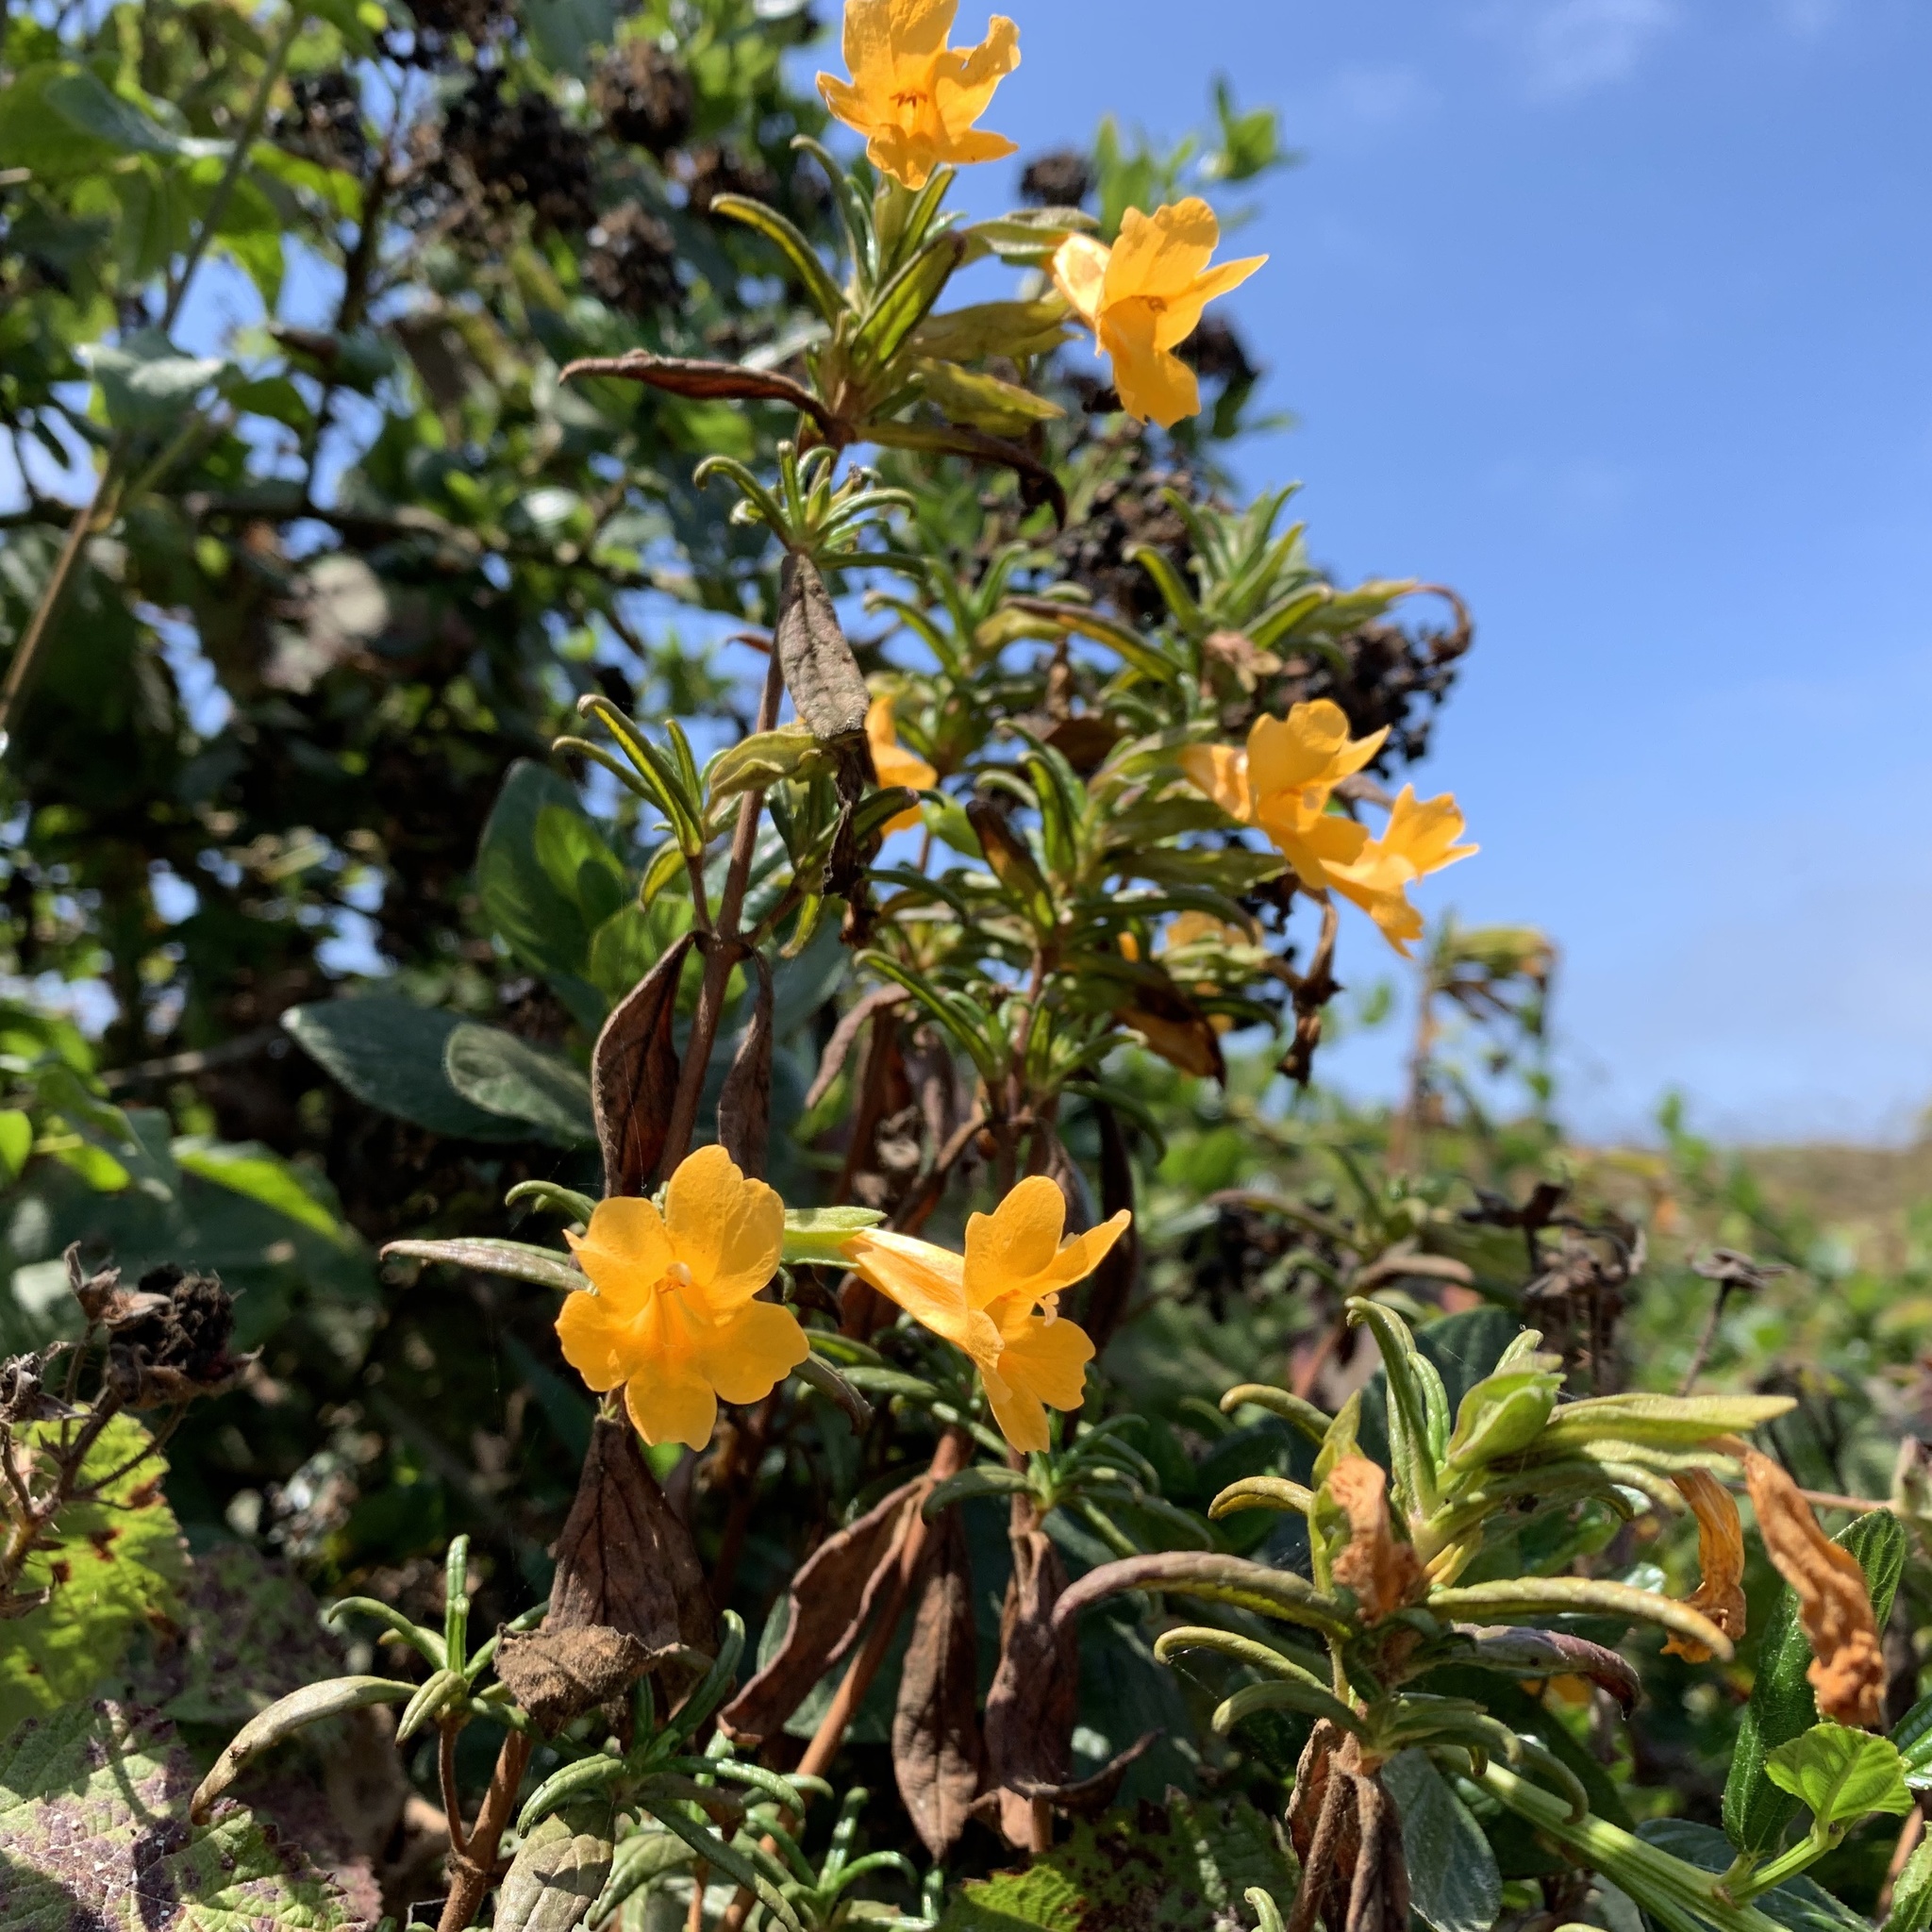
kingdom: Plantae
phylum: Tracheophyta
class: Magnoliopsida
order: Lamiales
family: Phrymaceae
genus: Diplacus
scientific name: Diplacus aurantiacus
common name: Bush monkey-flower
